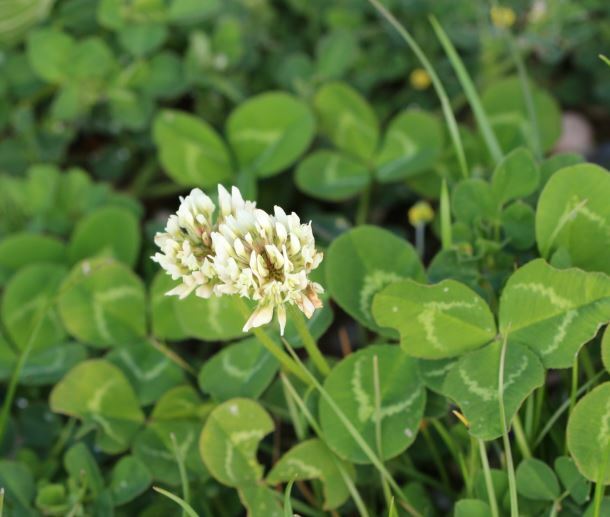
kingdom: Plantae
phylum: Tracheophyta
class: Magnoliopsida
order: Fabales
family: Fabaceae
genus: Trifolium
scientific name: Trifolium repens
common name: White clover
